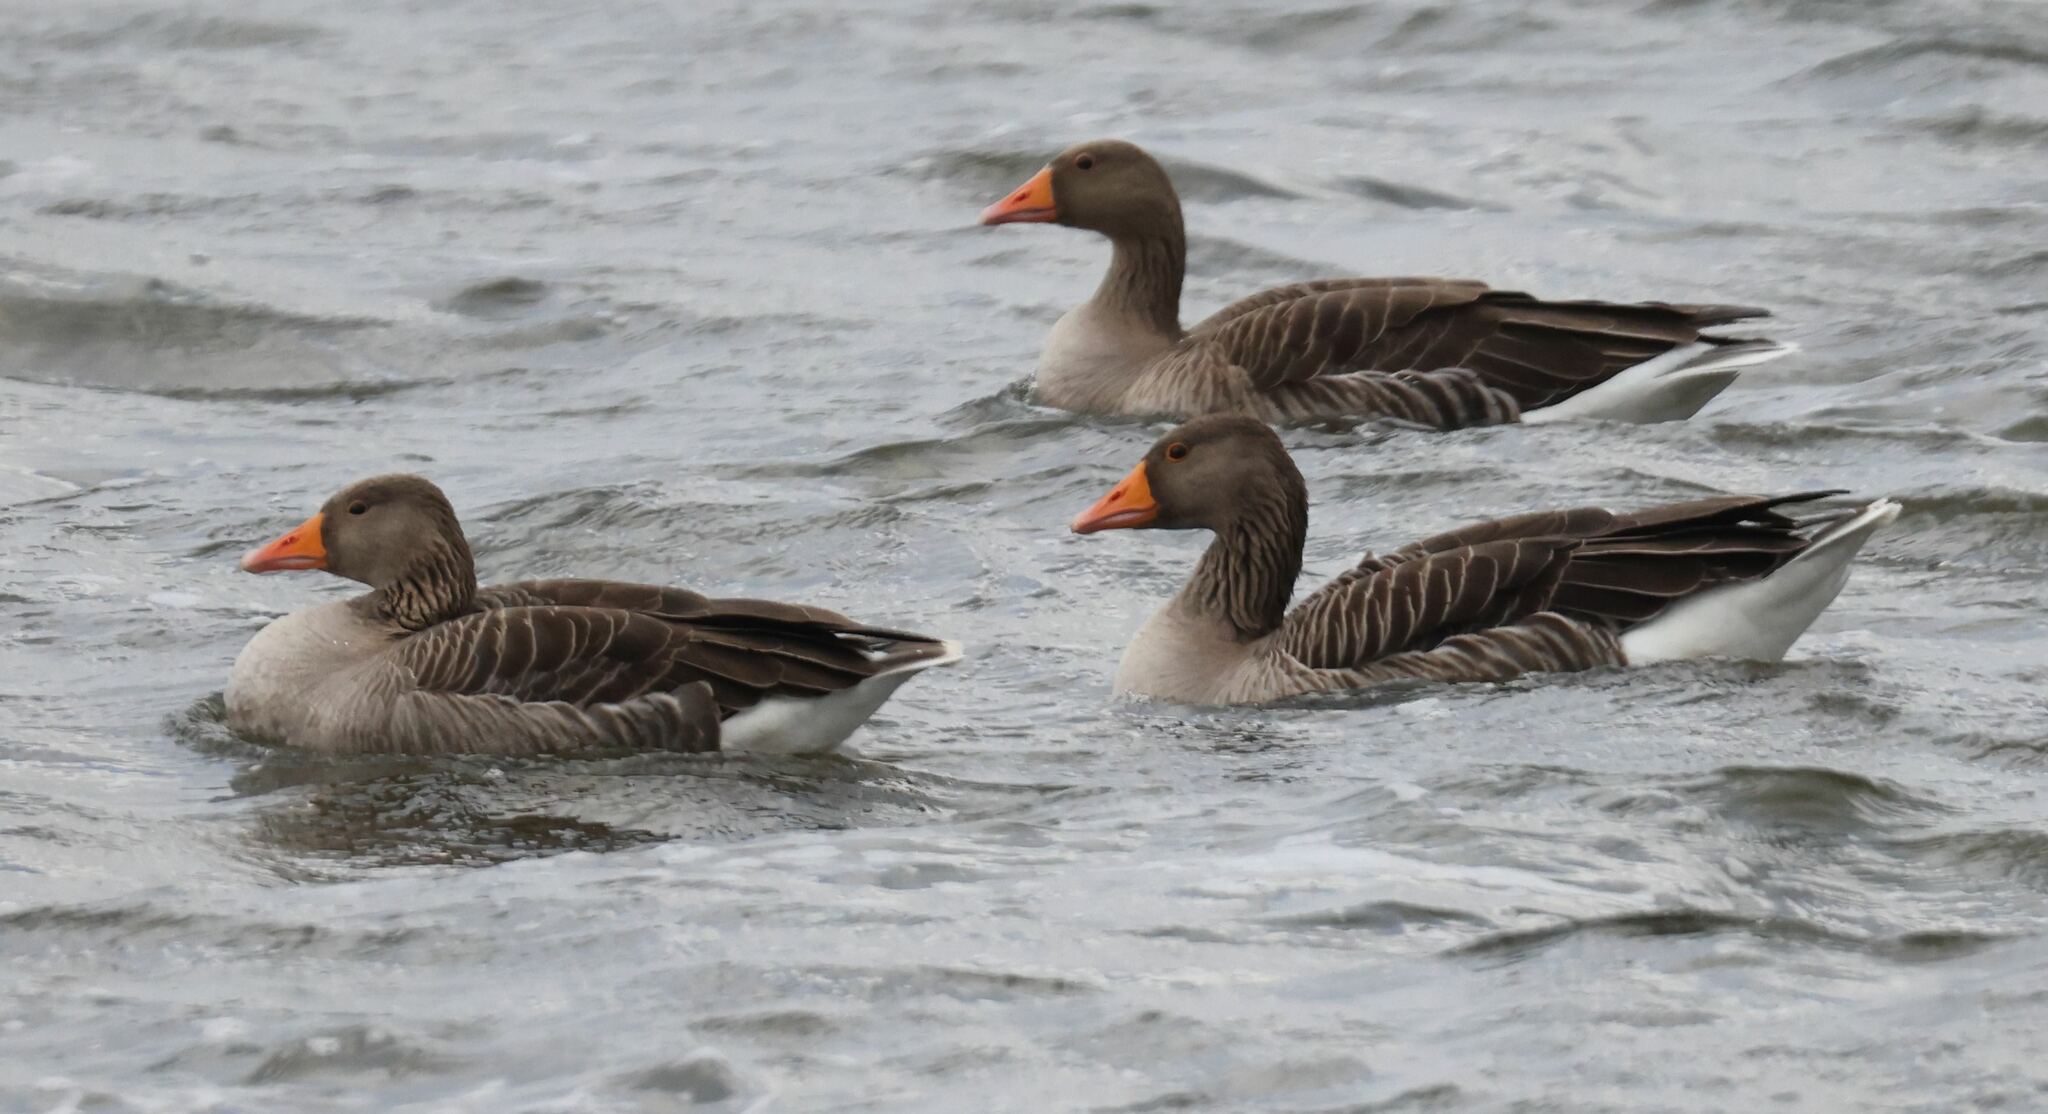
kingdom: Animalia
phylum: Chordata
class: Aves
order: Anseriformes
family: Anatidae
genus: Anser
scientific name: Anser anser
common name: Greylag goose
